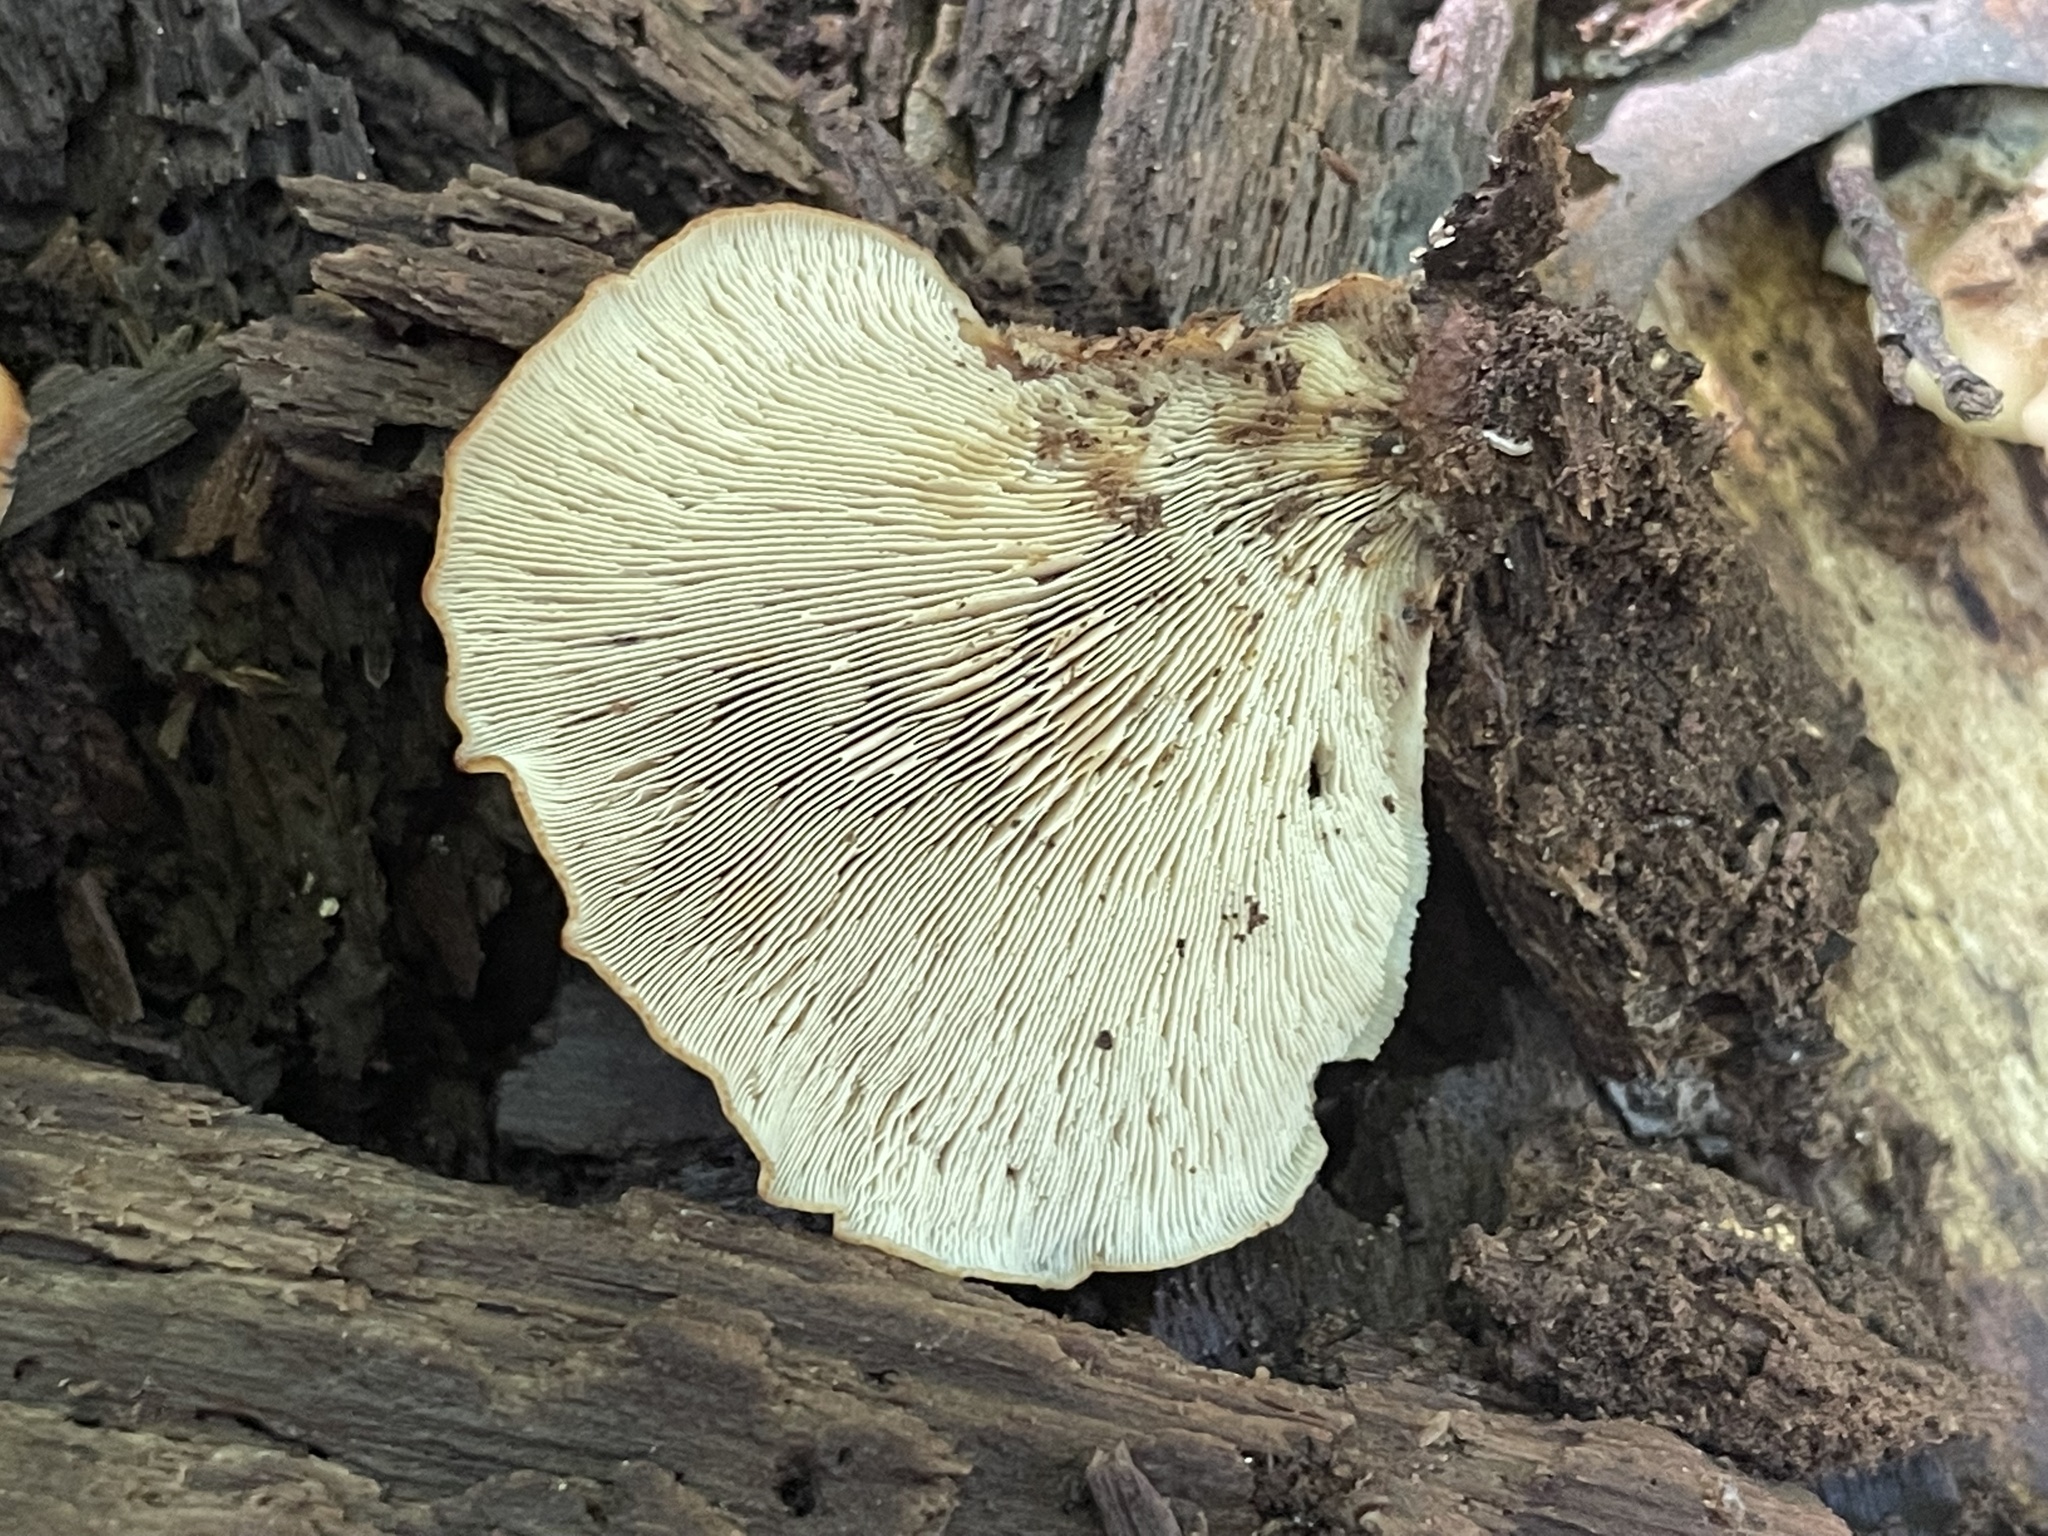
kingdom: Fungi
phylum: Basidiomycota
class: Agaricomycetes
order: Russulales
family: Auriscalpiaceae
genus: Lentinellus
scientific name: Lentinellus ursinus
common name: Bear lentinus
